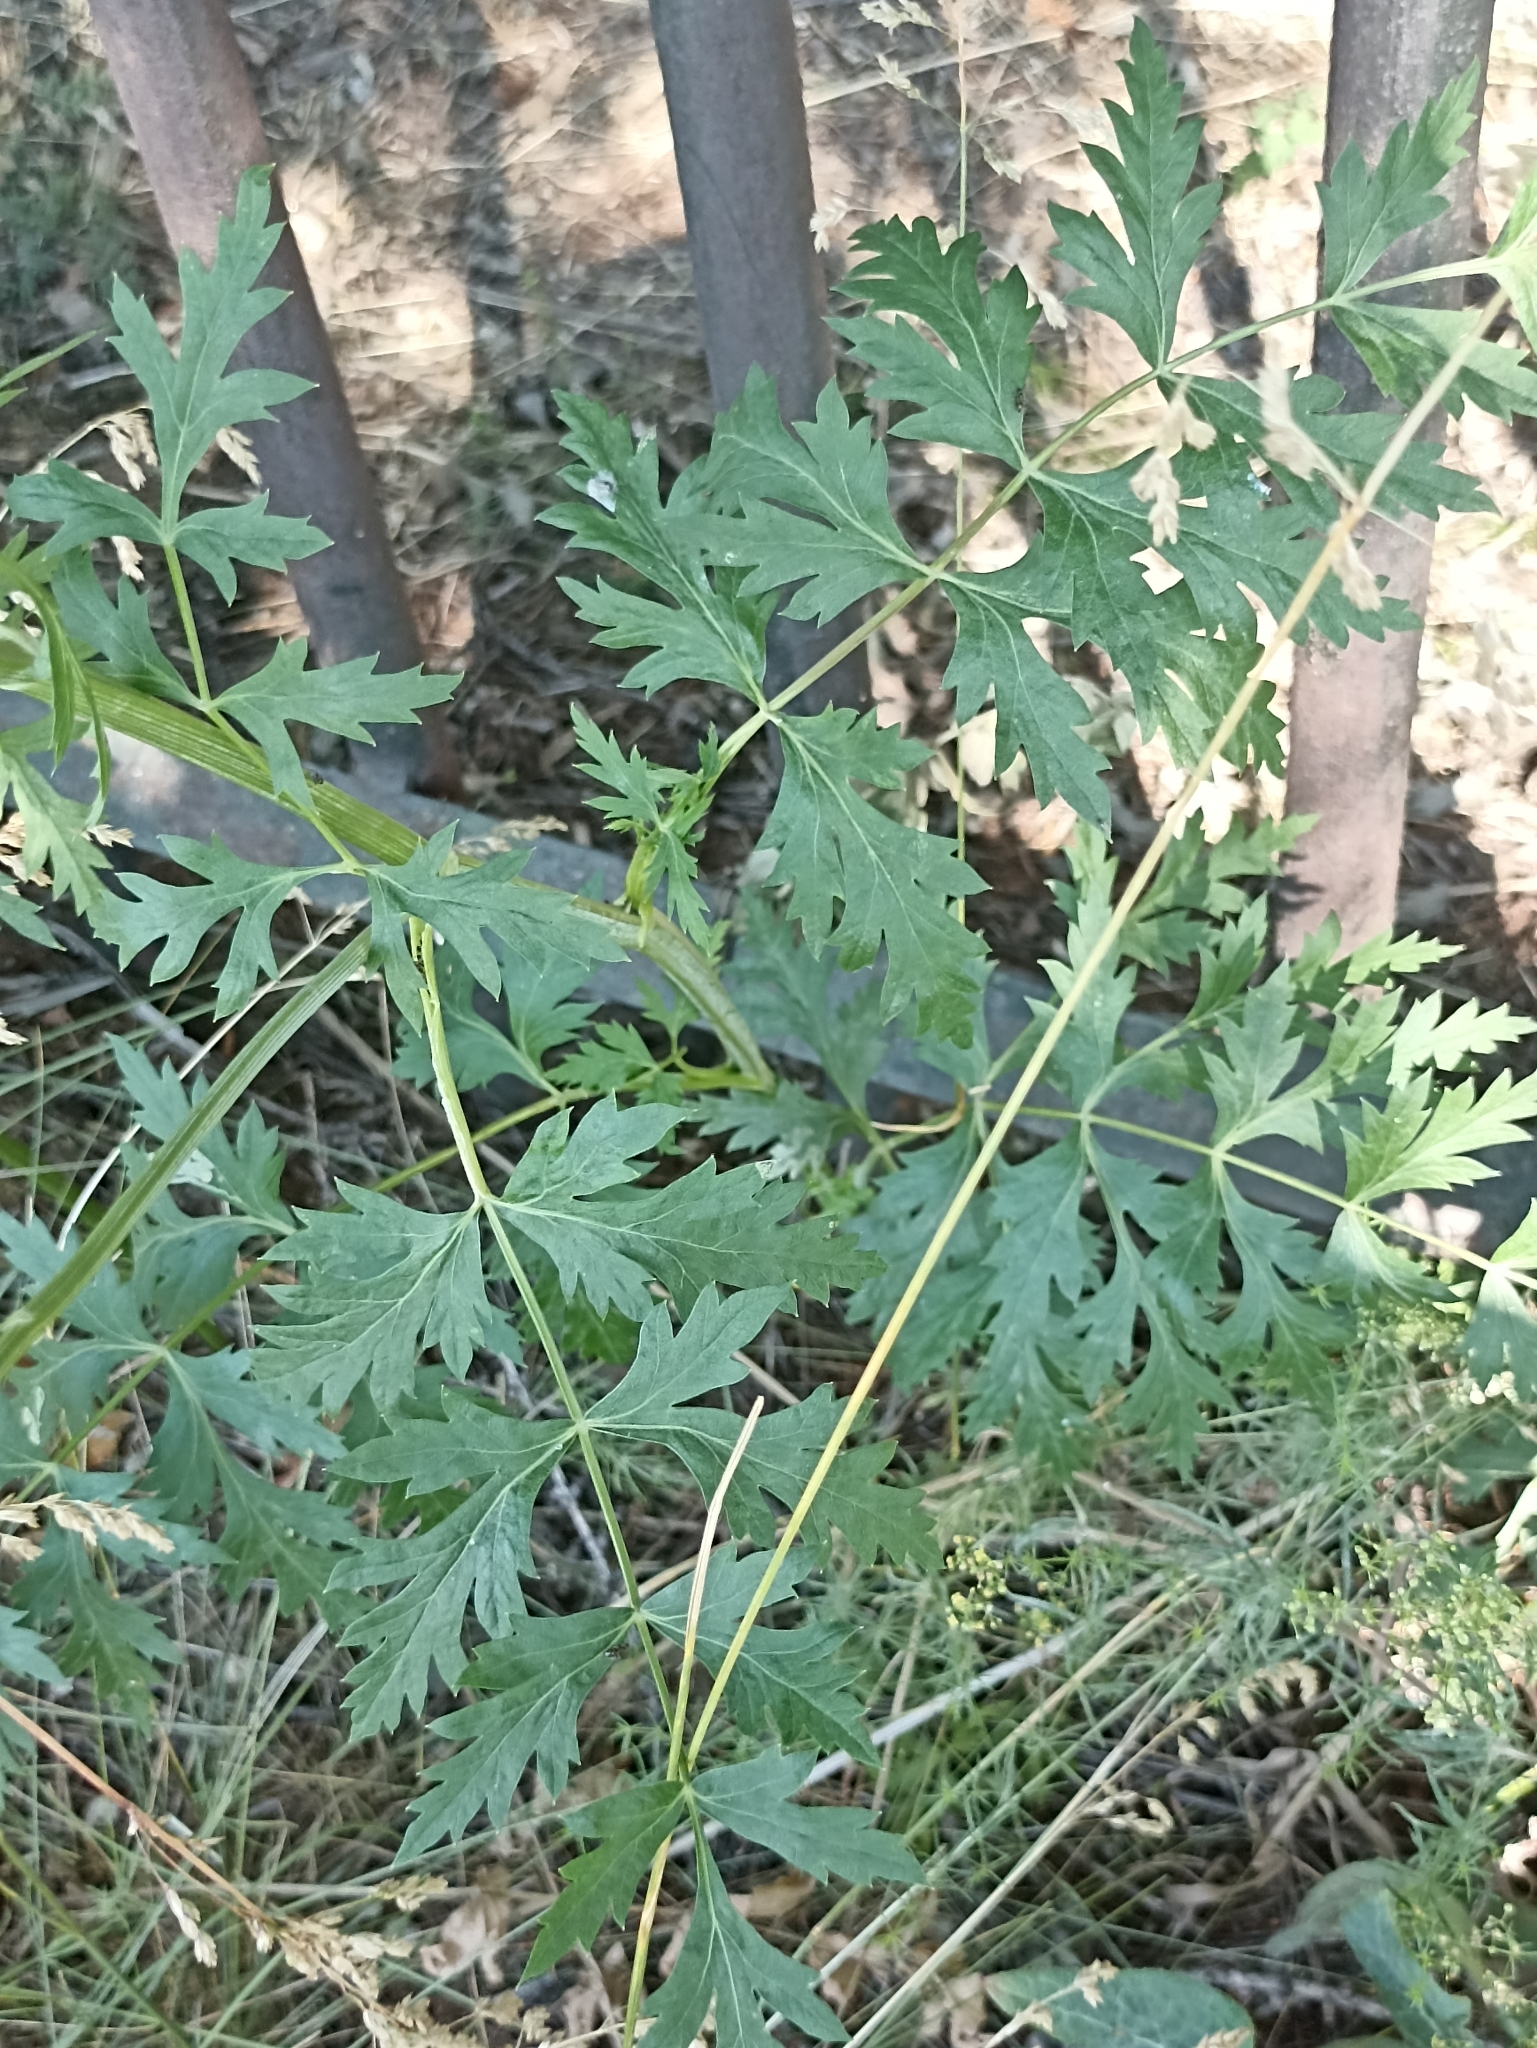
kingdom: Plantae
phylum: Tracheophyta
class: Magnoliopsida
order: Apiales
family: Apiaceae
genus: Seseli
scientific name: Seseli libanotis
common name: Mooncarrot
